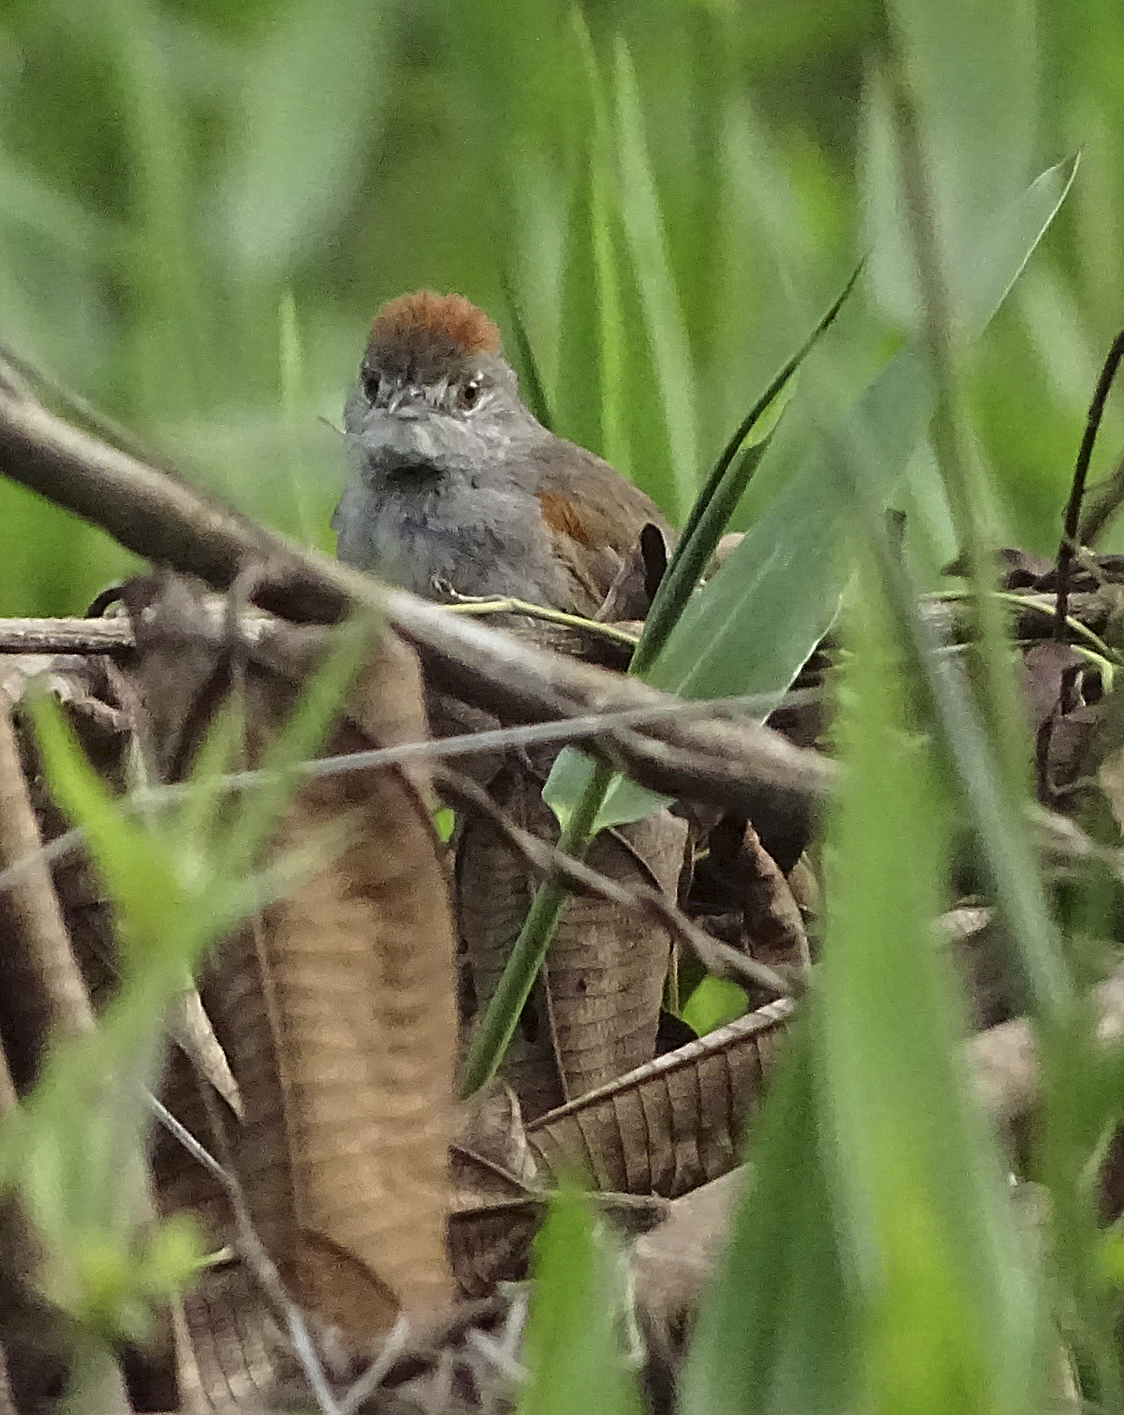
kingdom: Animalia
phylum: Chordata
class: Aves
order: Passeriformes
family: Furnariidae
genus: Synallaxis
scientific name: Synallaxis albescens
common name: Pale-breasted spinetail
